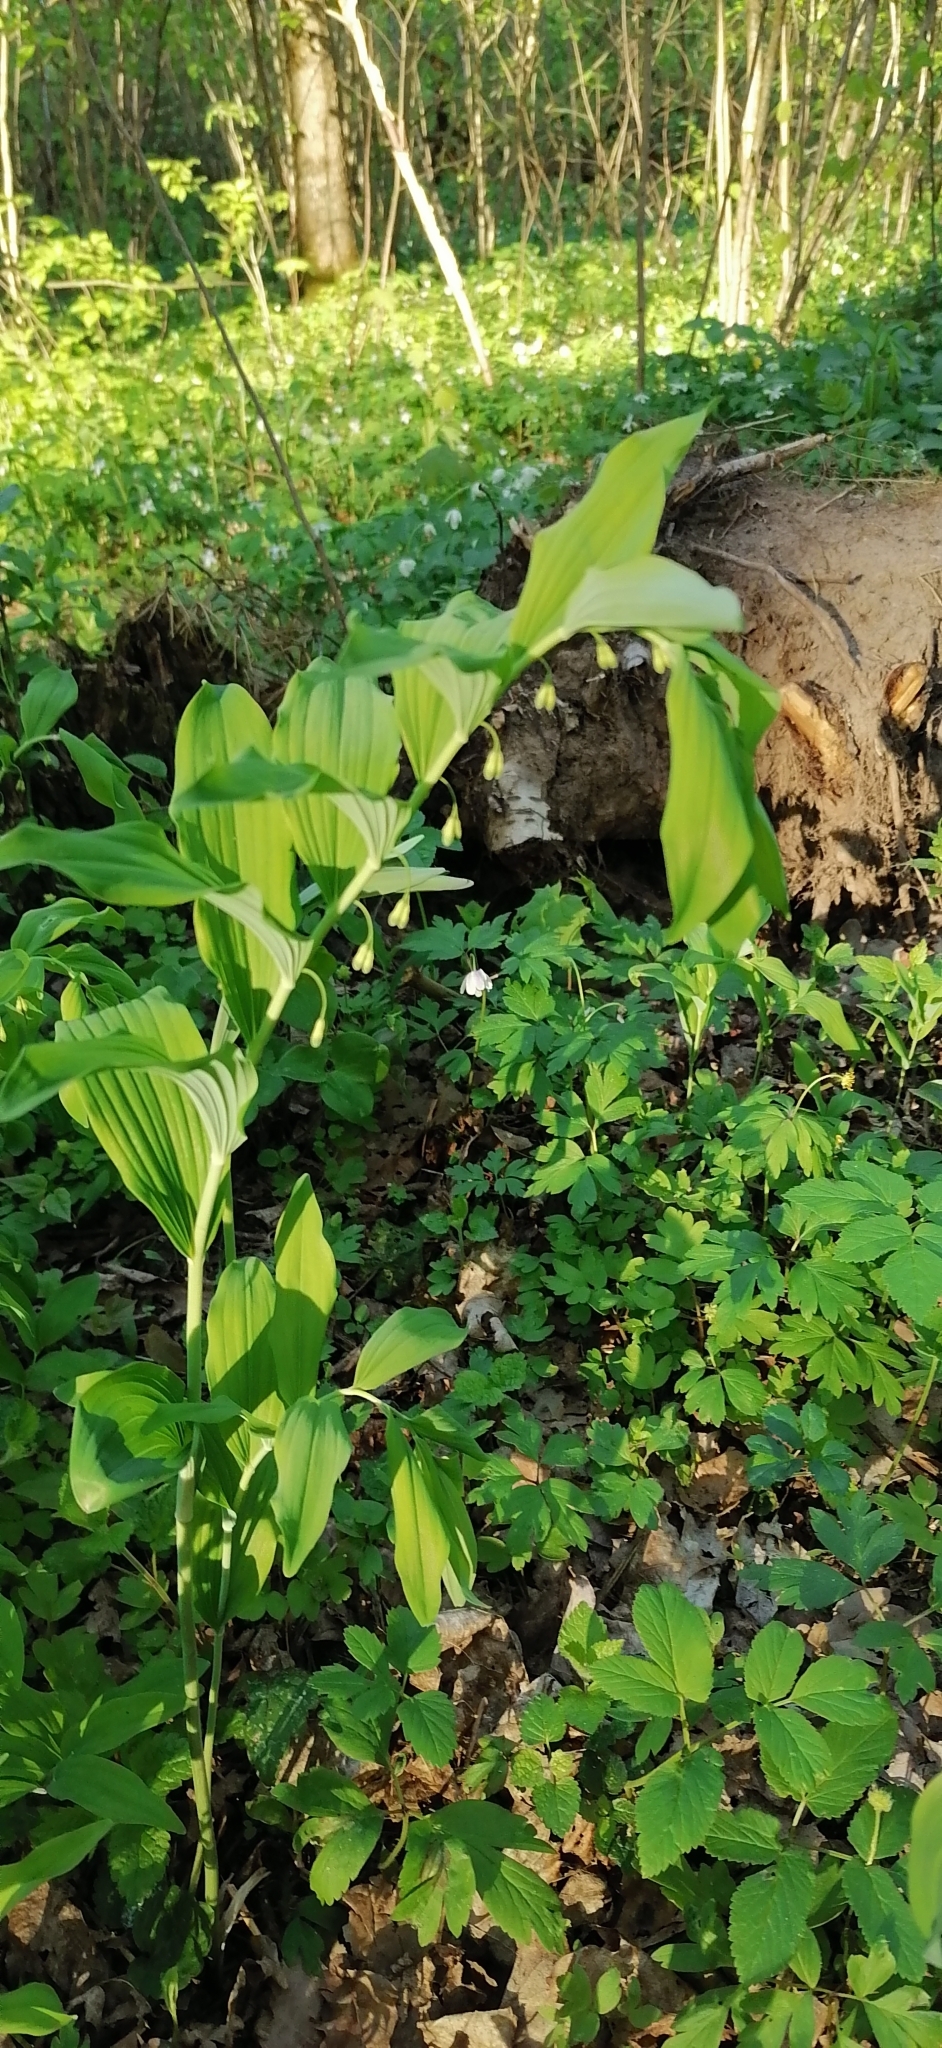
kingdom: Plantae
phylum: Tracheophyta
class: Liliopsida
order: Asparagales
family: Asparagaceae
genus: Polygonatum
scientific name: Polygonatum multiflorum
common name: Solomon's-seal
